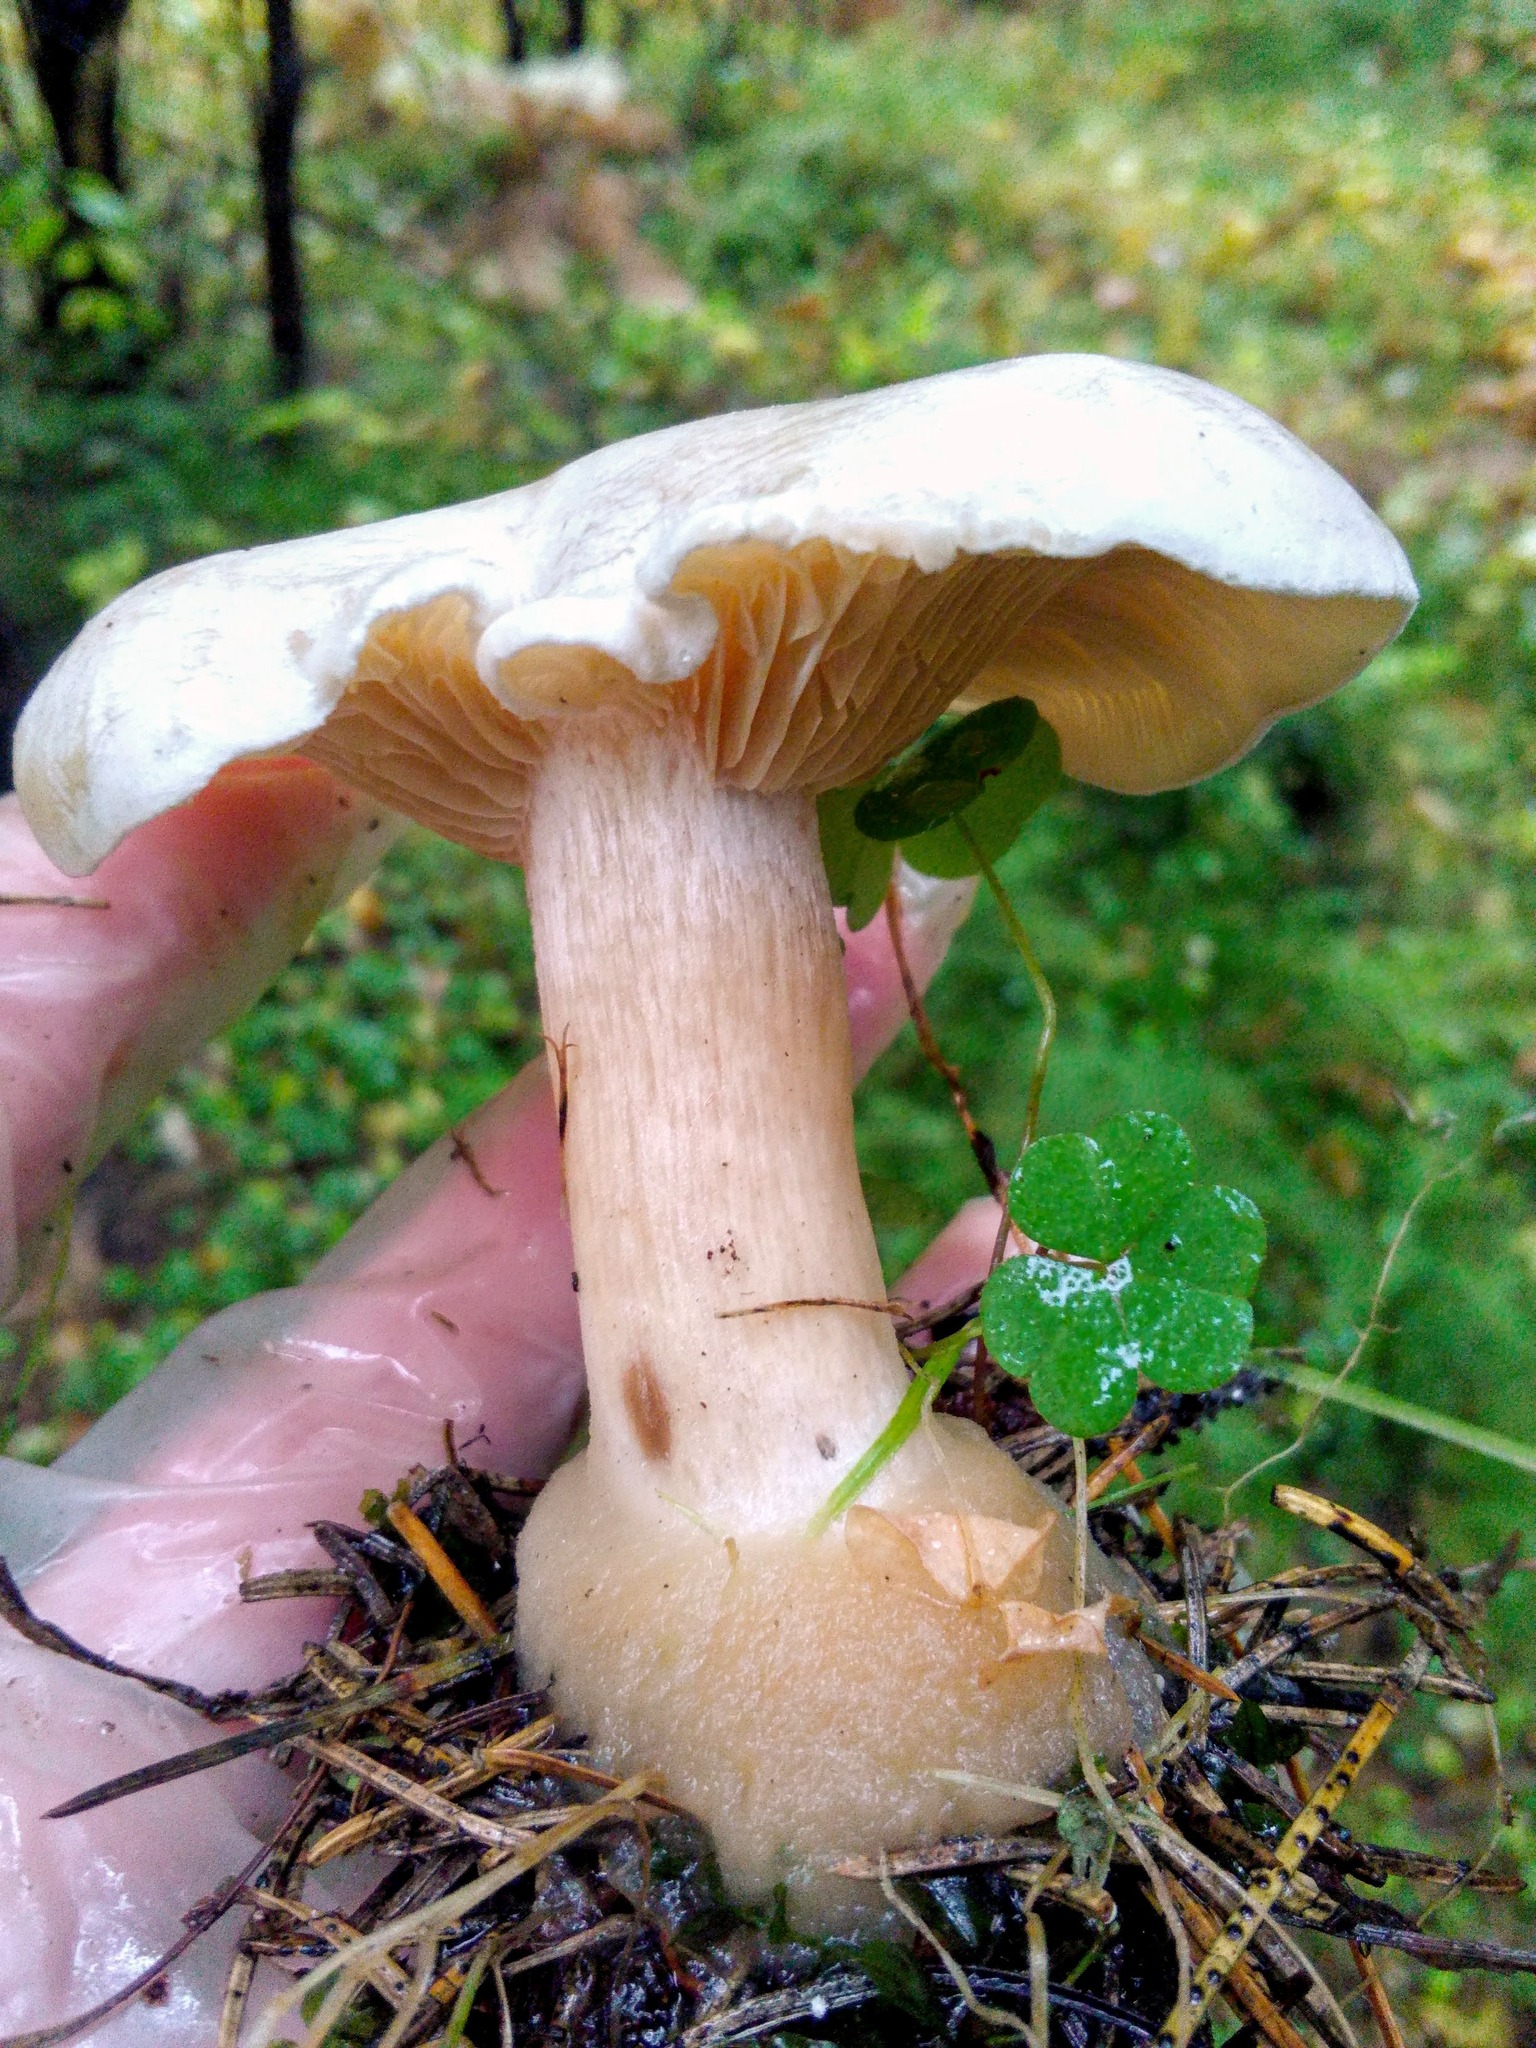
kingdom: Fungi
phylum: Basidiomycota
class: Agaricomycetes
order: Agaricales
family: Entolomataceae
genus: Clitopilus
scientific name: Clitopilus prunulus
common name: The miller
